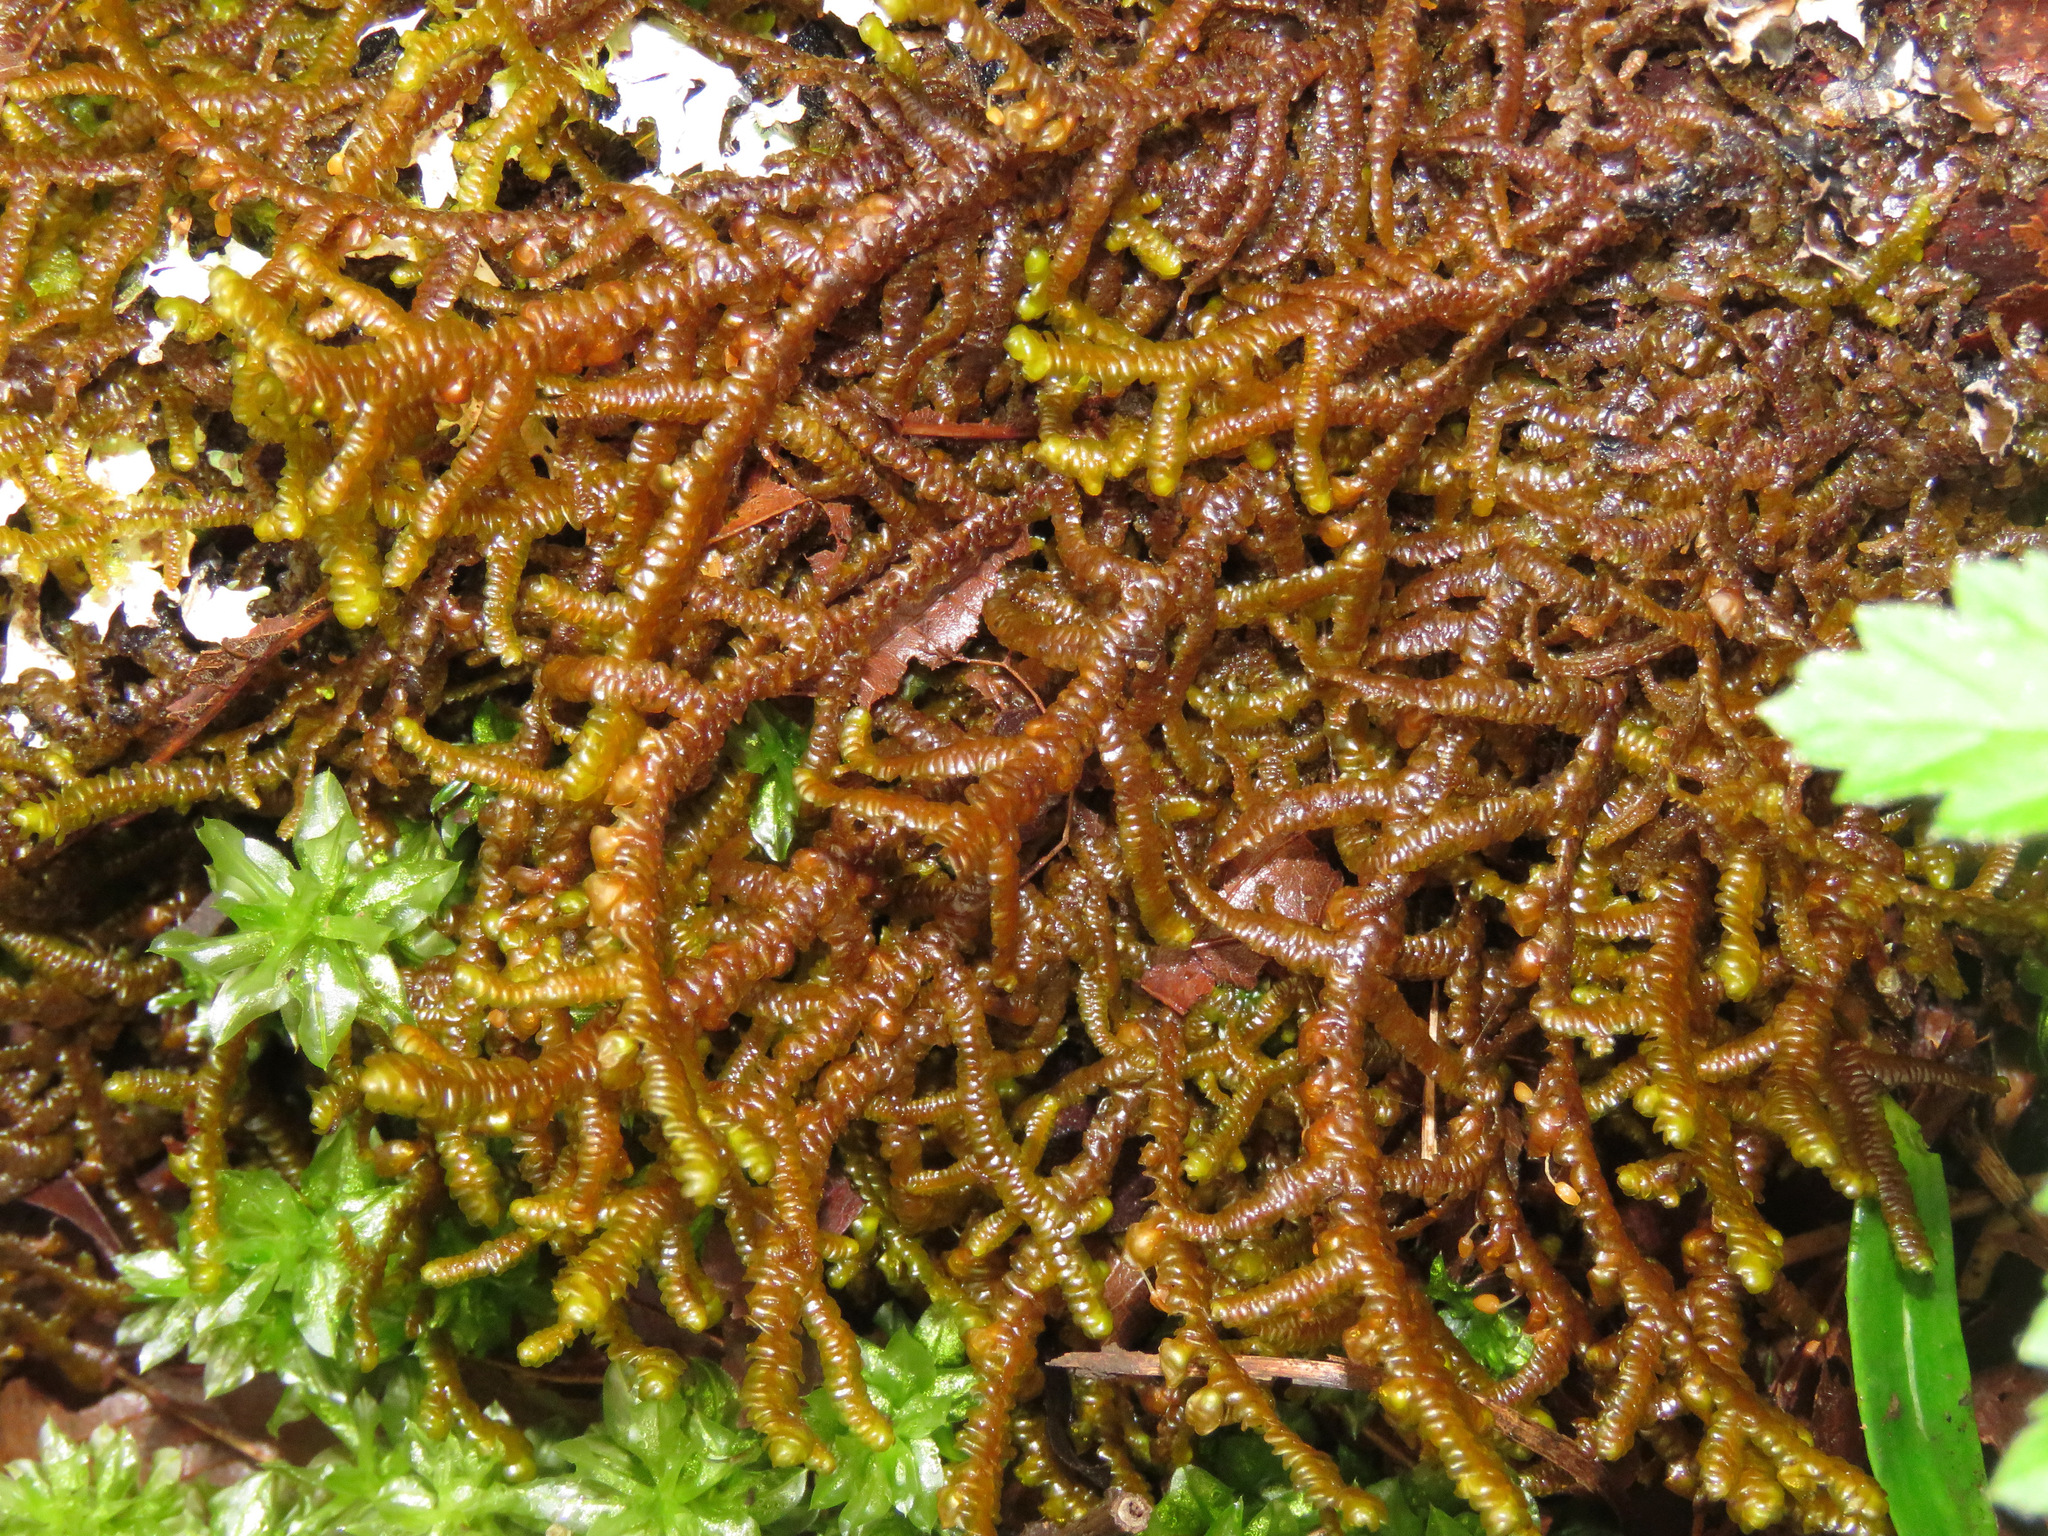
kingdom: Plantae
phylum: Marchantiophyta
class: Jungermanniopsida
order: Porellales
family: Porellaceae
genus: Porella
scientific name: Porella navicularis
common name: Tree ruffle liverwort
